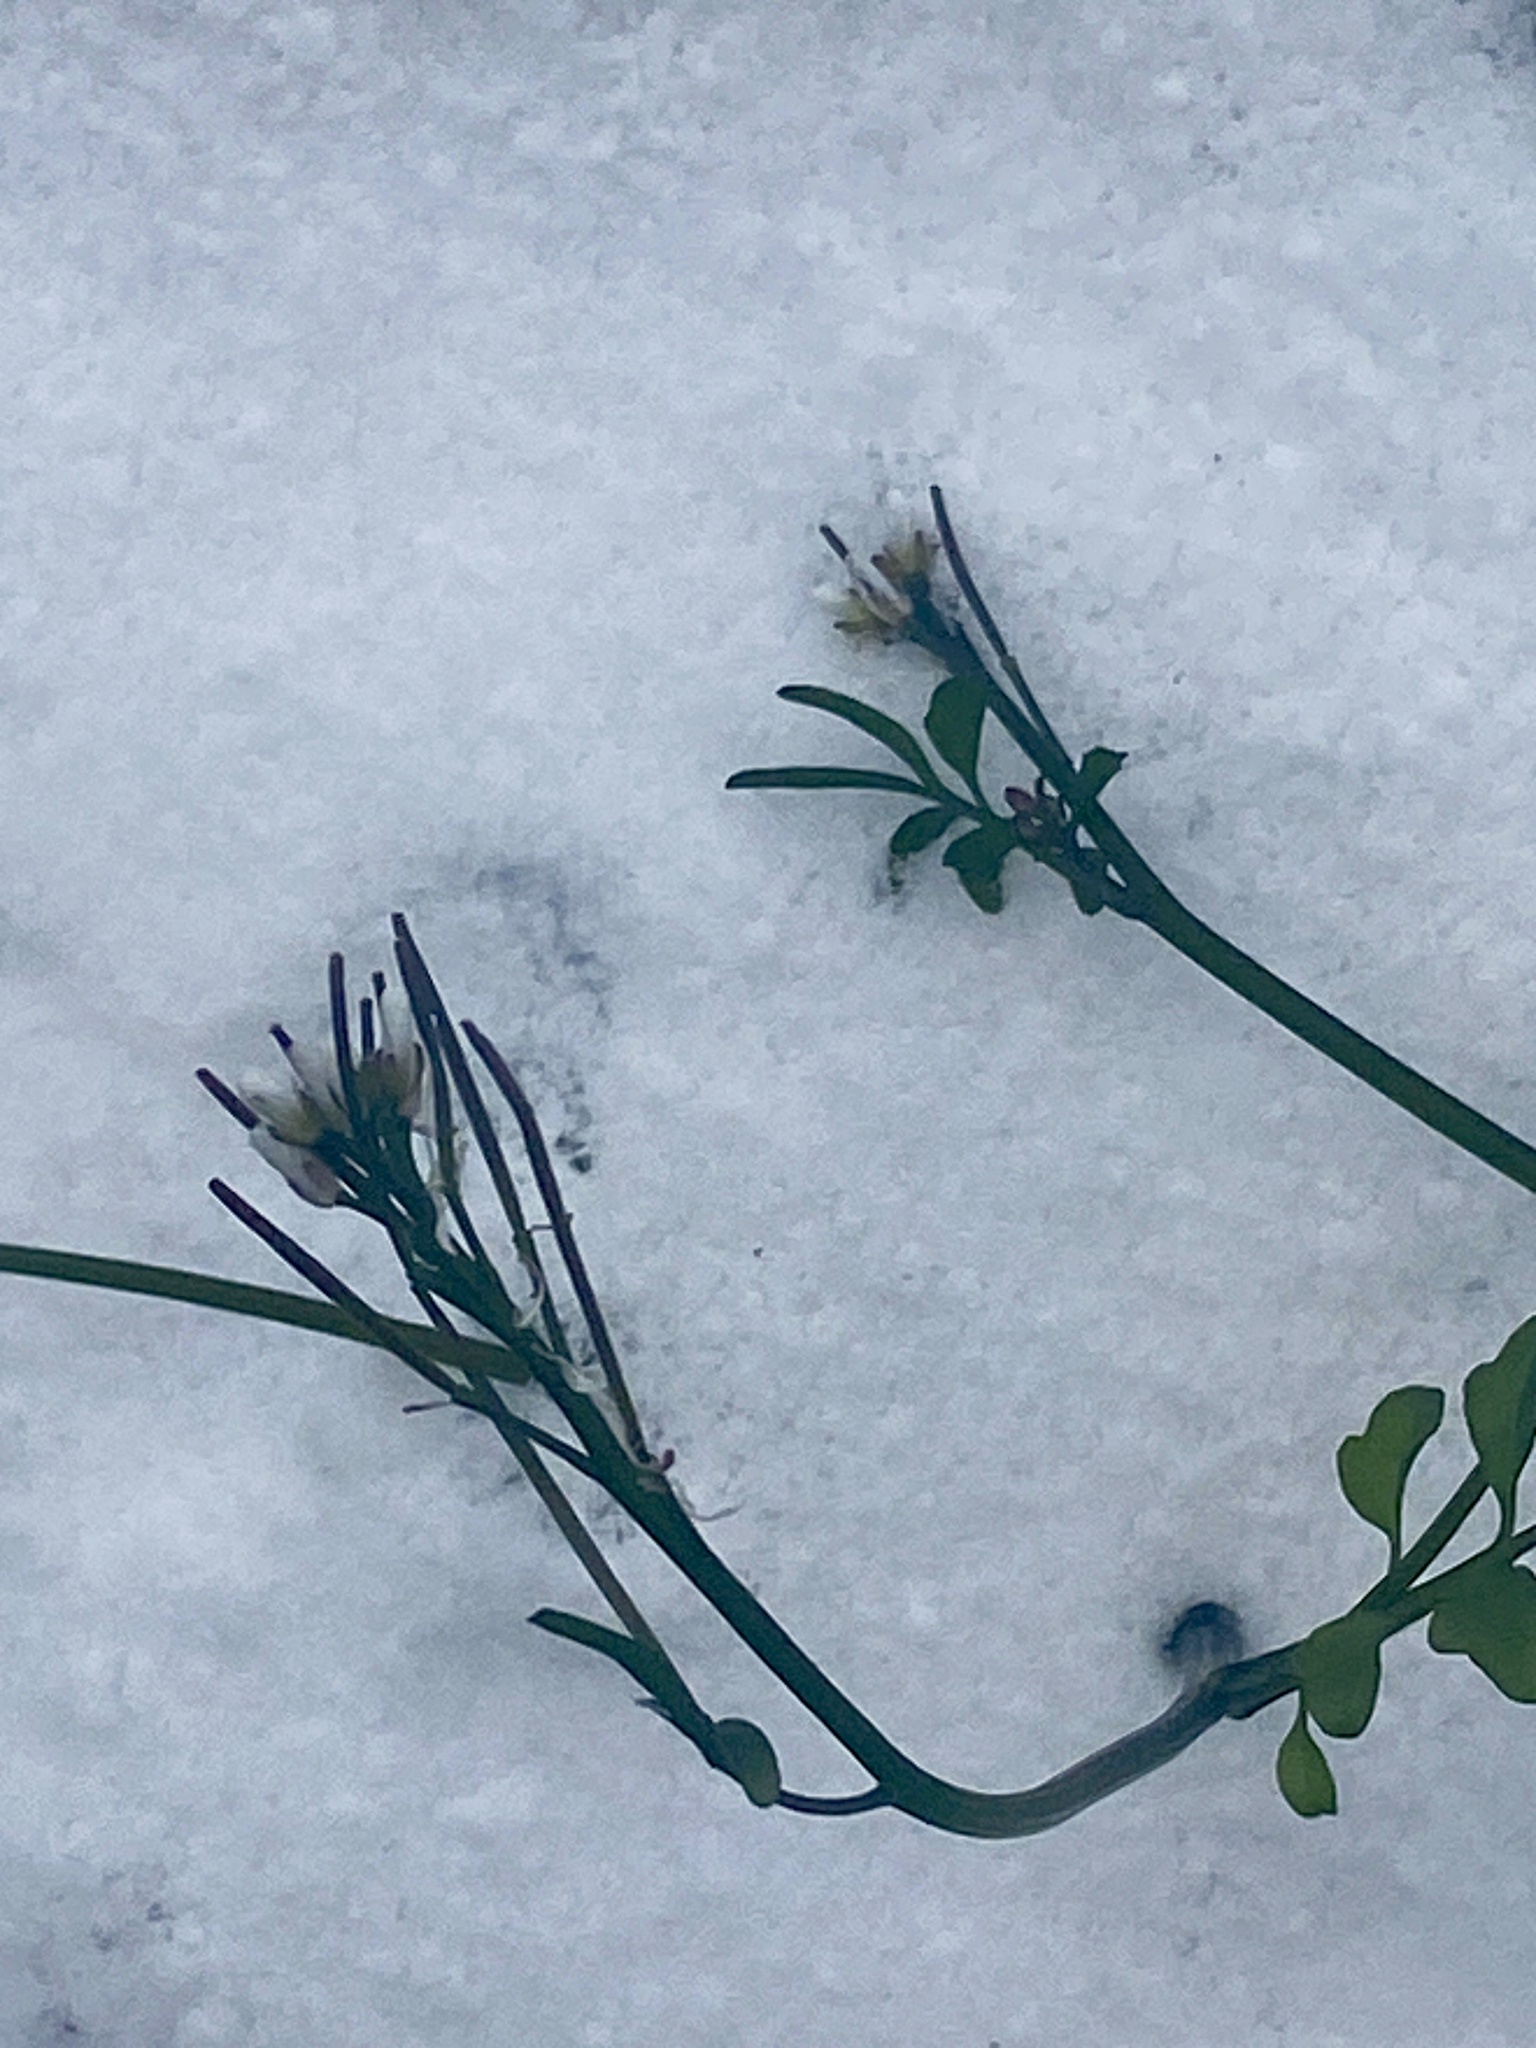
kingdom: Plantae
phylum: Tracheophyta
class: Magnoliopsida
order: Brassicales
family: Brassicaceae
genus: Cardamine
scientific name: Cardamine hirsuta
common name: Hairy bittercress
